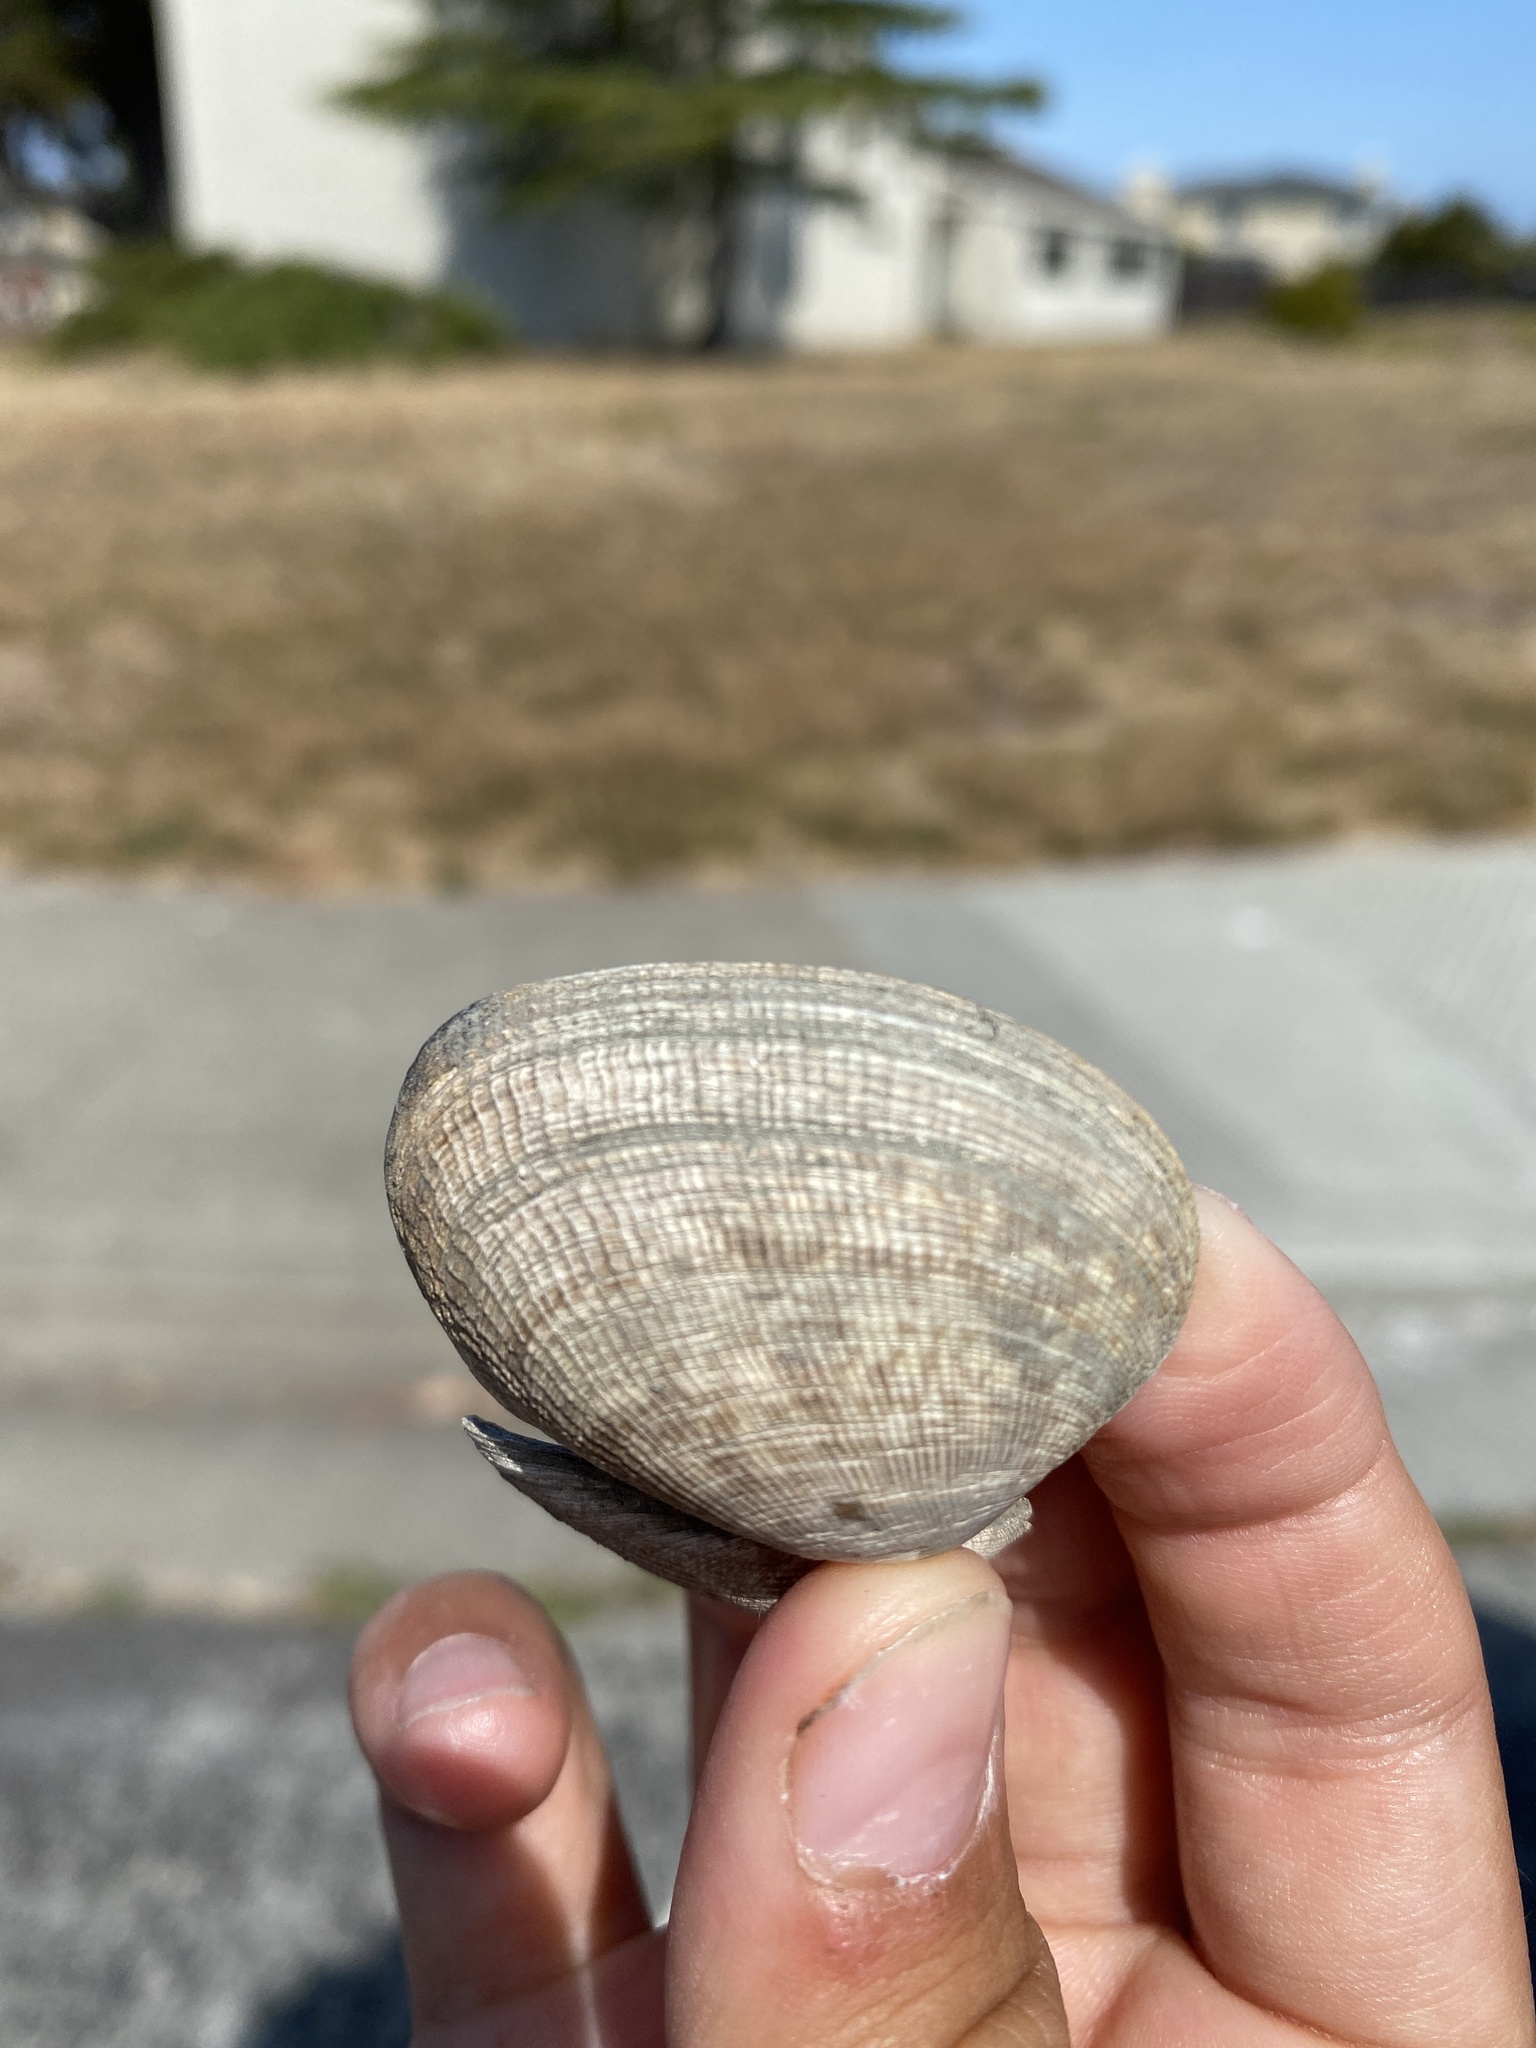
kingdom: Animalia
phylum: Mollusca
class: Bivalvia
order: Venerida
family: Veneridae
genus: Ruditapes
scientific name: Ruditapes philippinarum
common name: Manila clam
